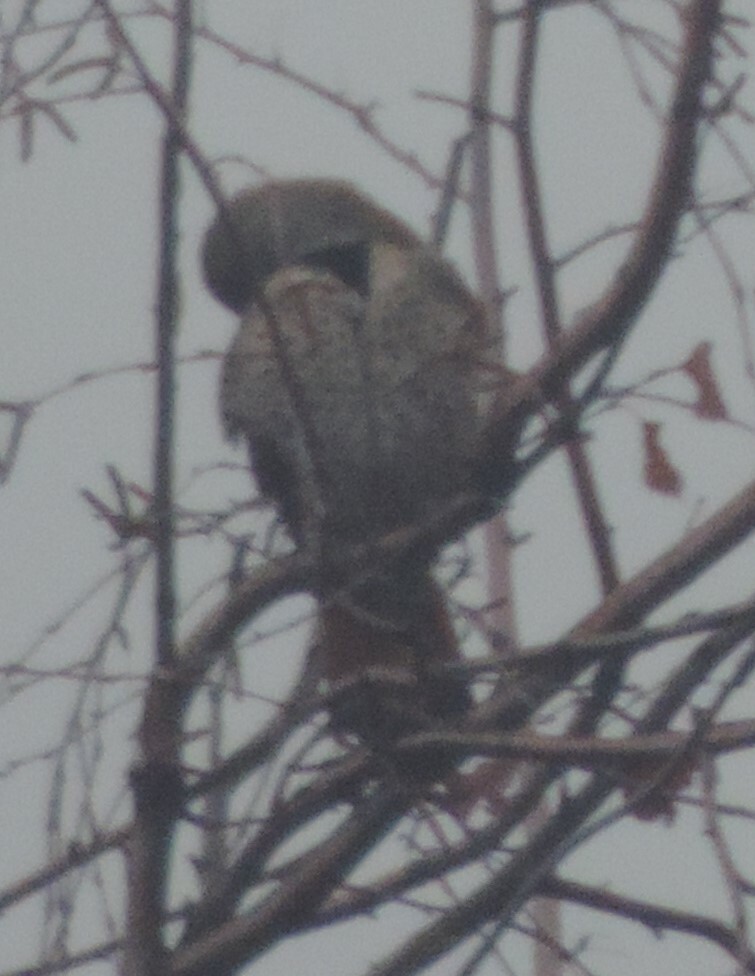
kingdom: Animalia
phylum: Chordata
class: Aves
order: Piciformes
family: Picidae
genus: Colaptes
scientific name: Colaptes auratus
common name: Northern flicker
